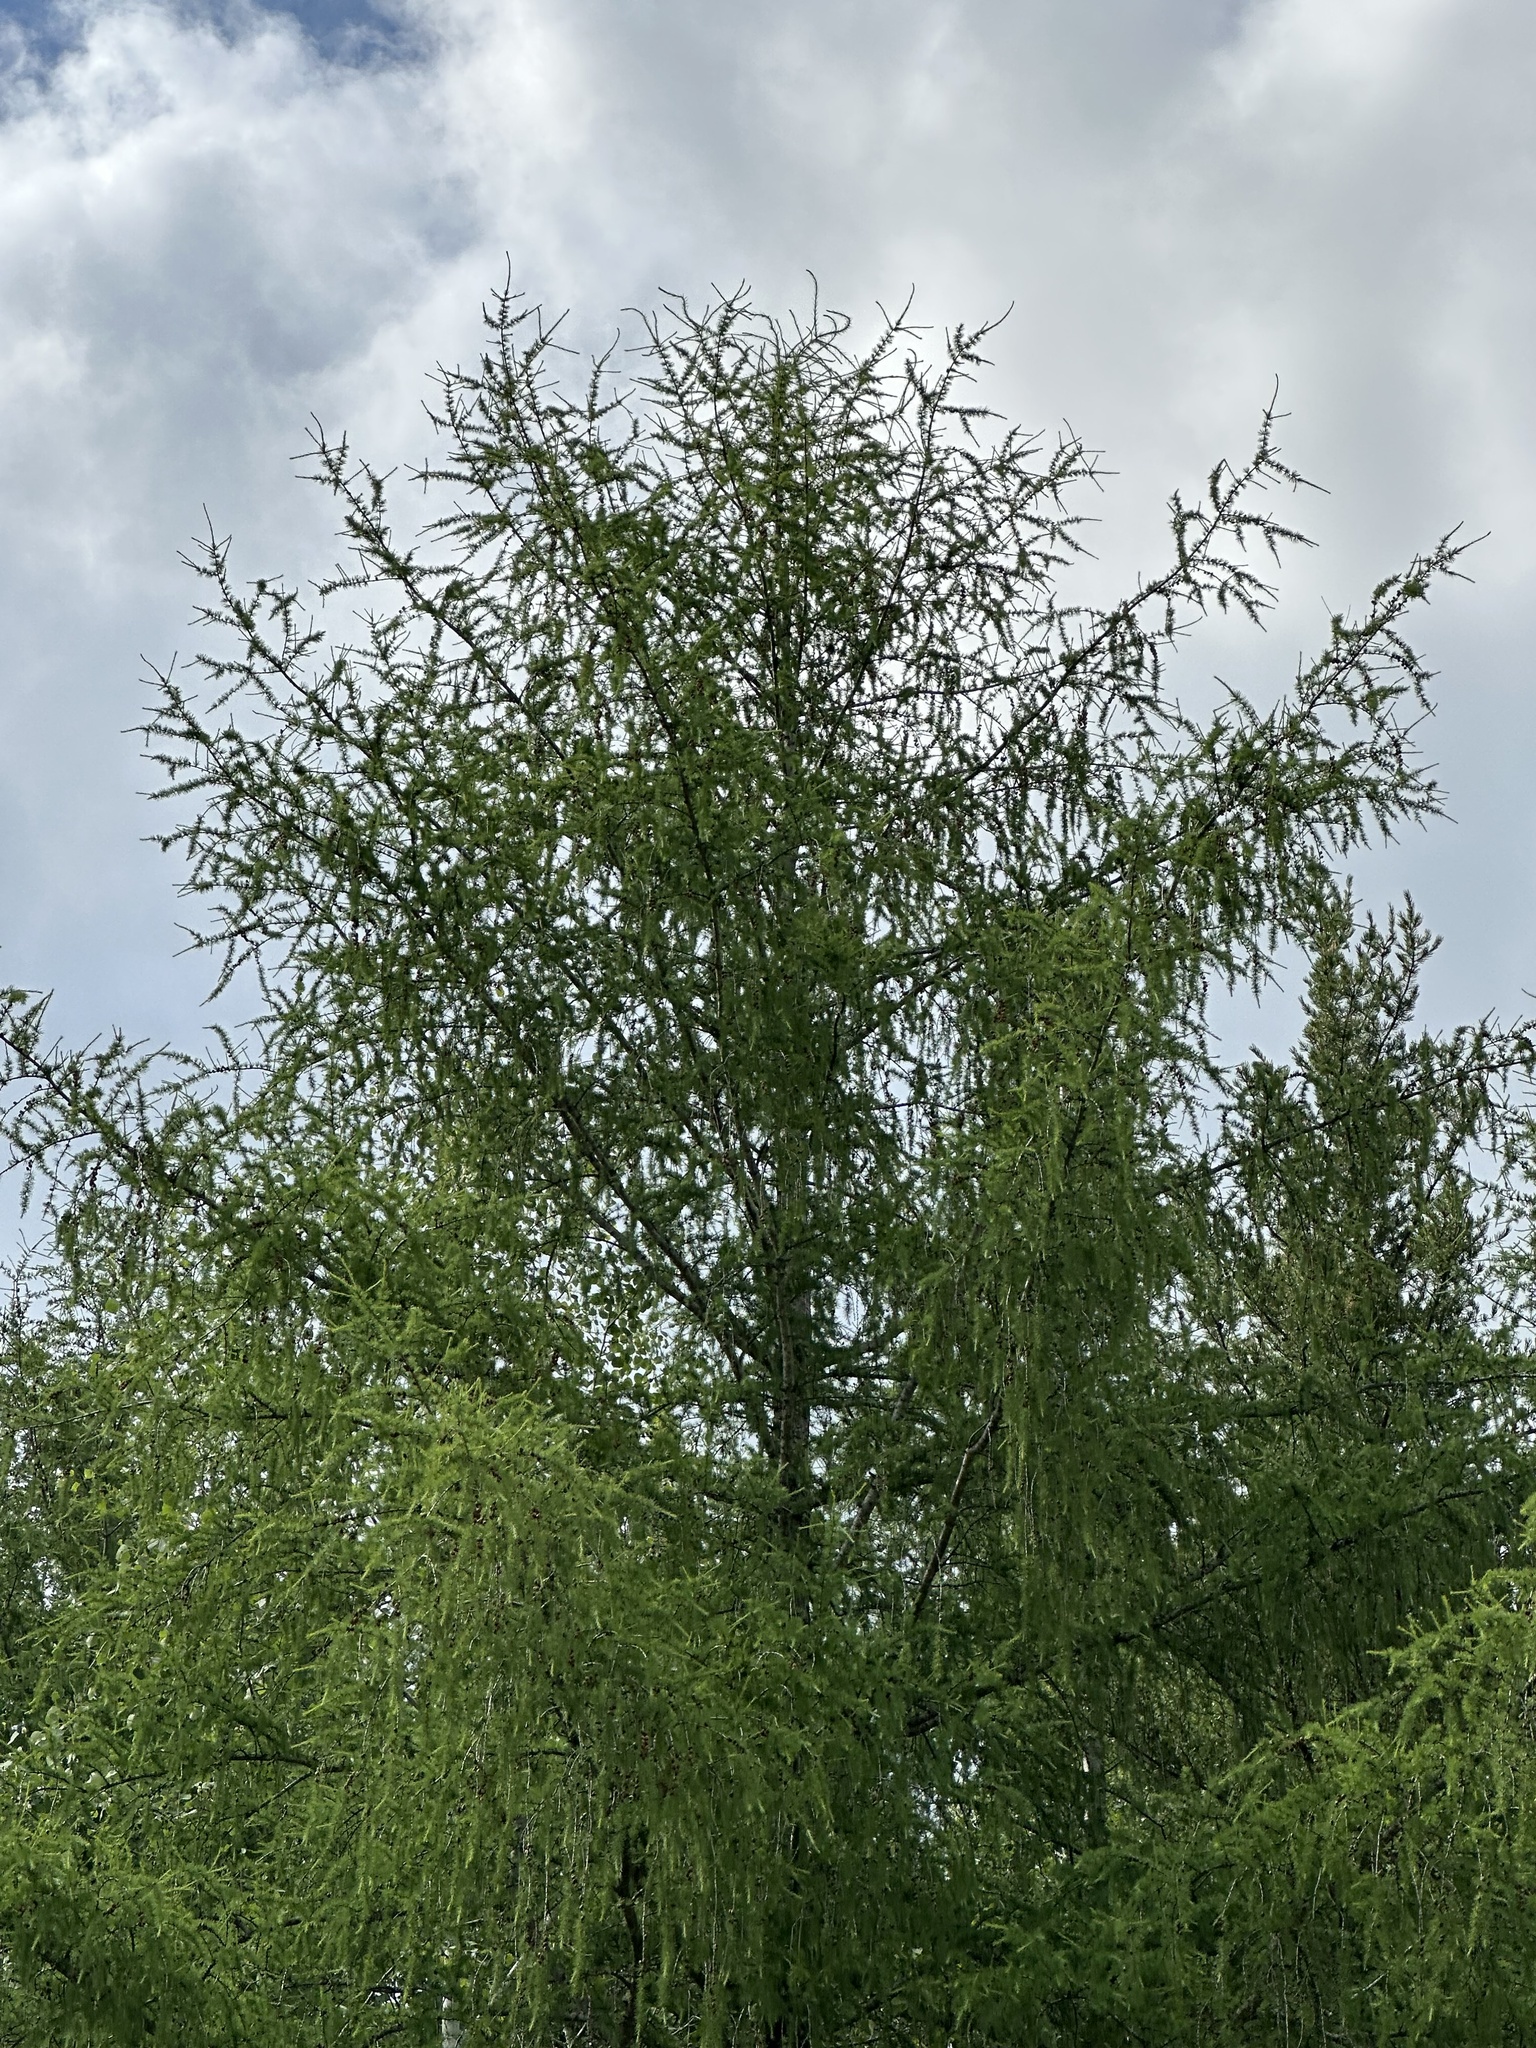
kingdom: Plantae
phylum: Tracheophyta
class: Pinopsida
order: Pinales
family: Pinaceae
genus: Larix
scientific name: Larix laricina
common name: American larch
